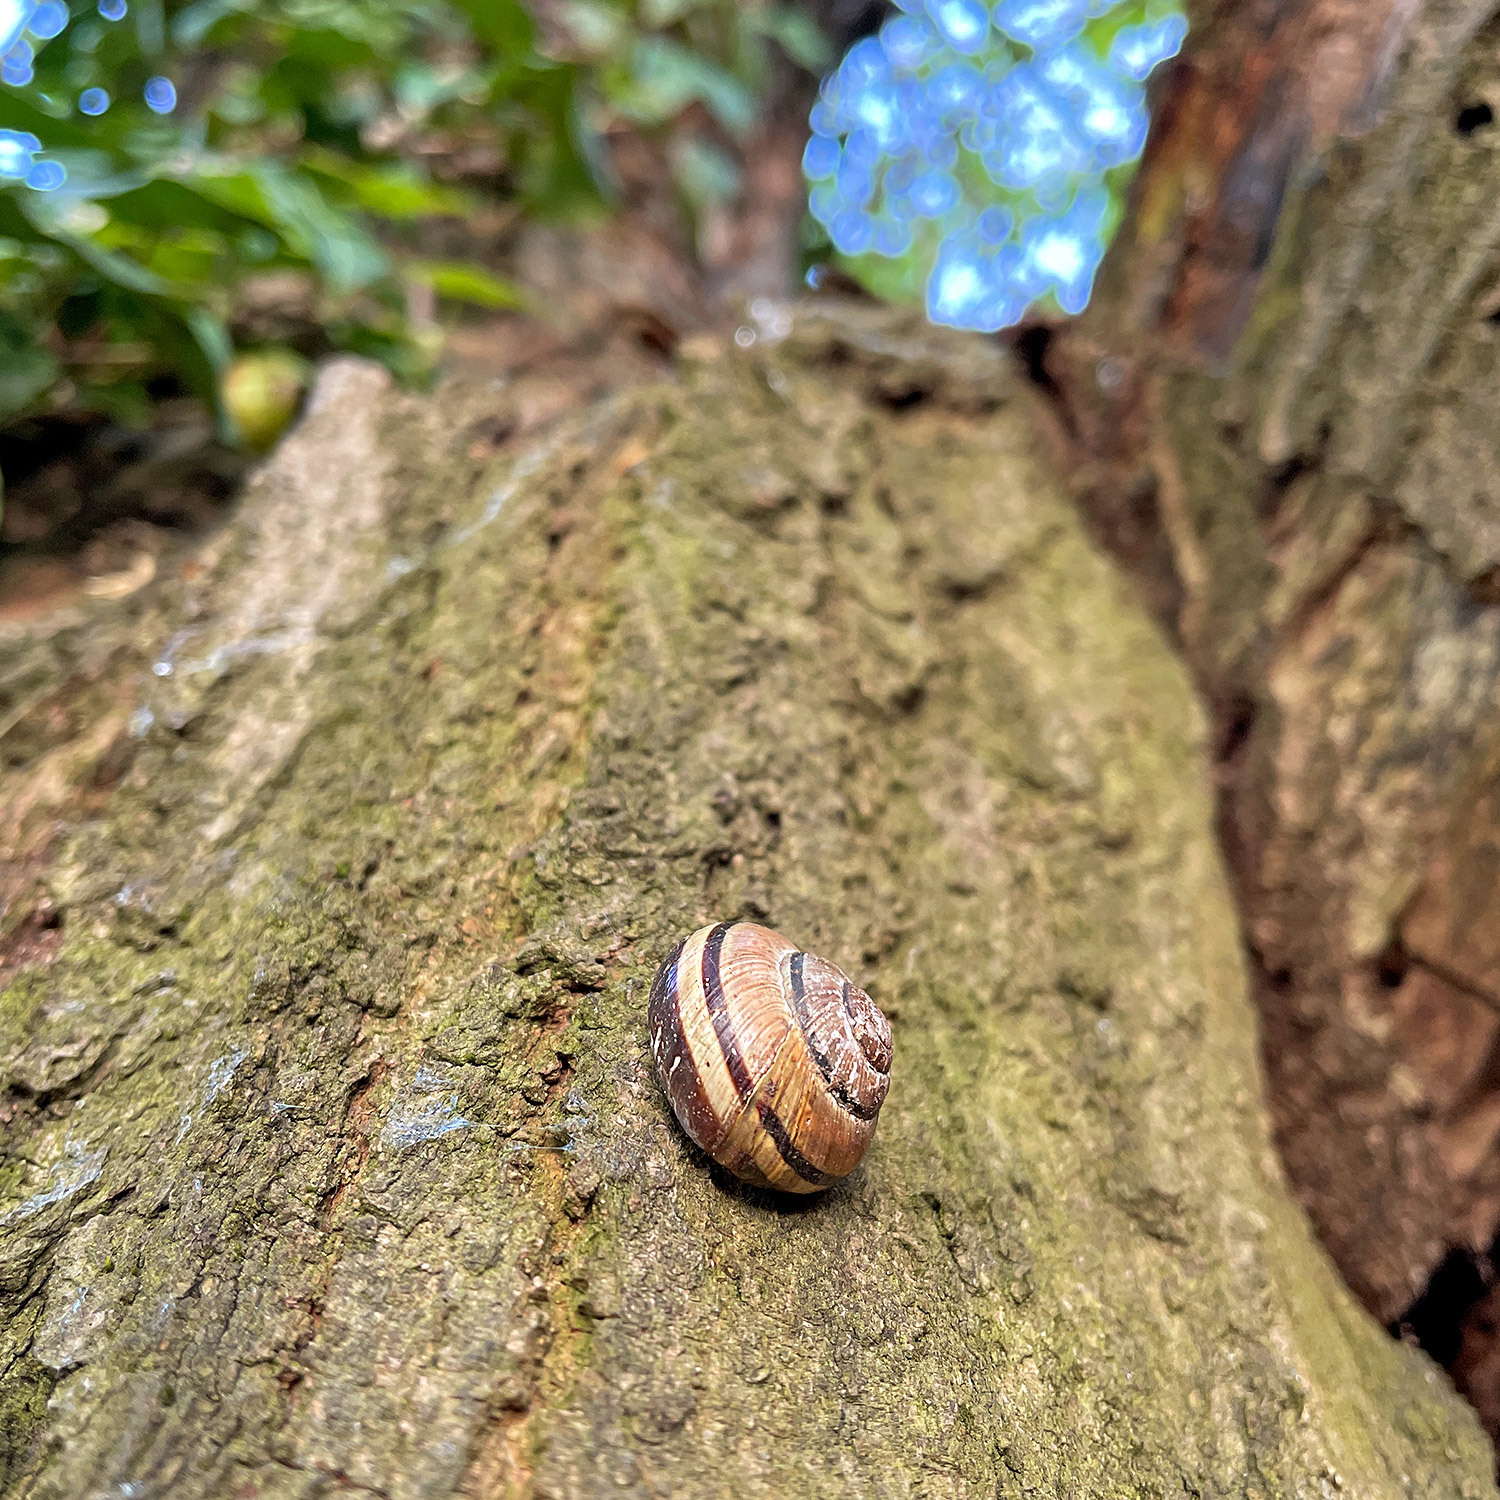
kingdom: Animalia
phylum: Mollusca
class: Gastropoda
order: Stylommatophora
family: Helicidae
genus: Cepaea
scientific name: Cepaea nemoralis
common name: Grovesnail
